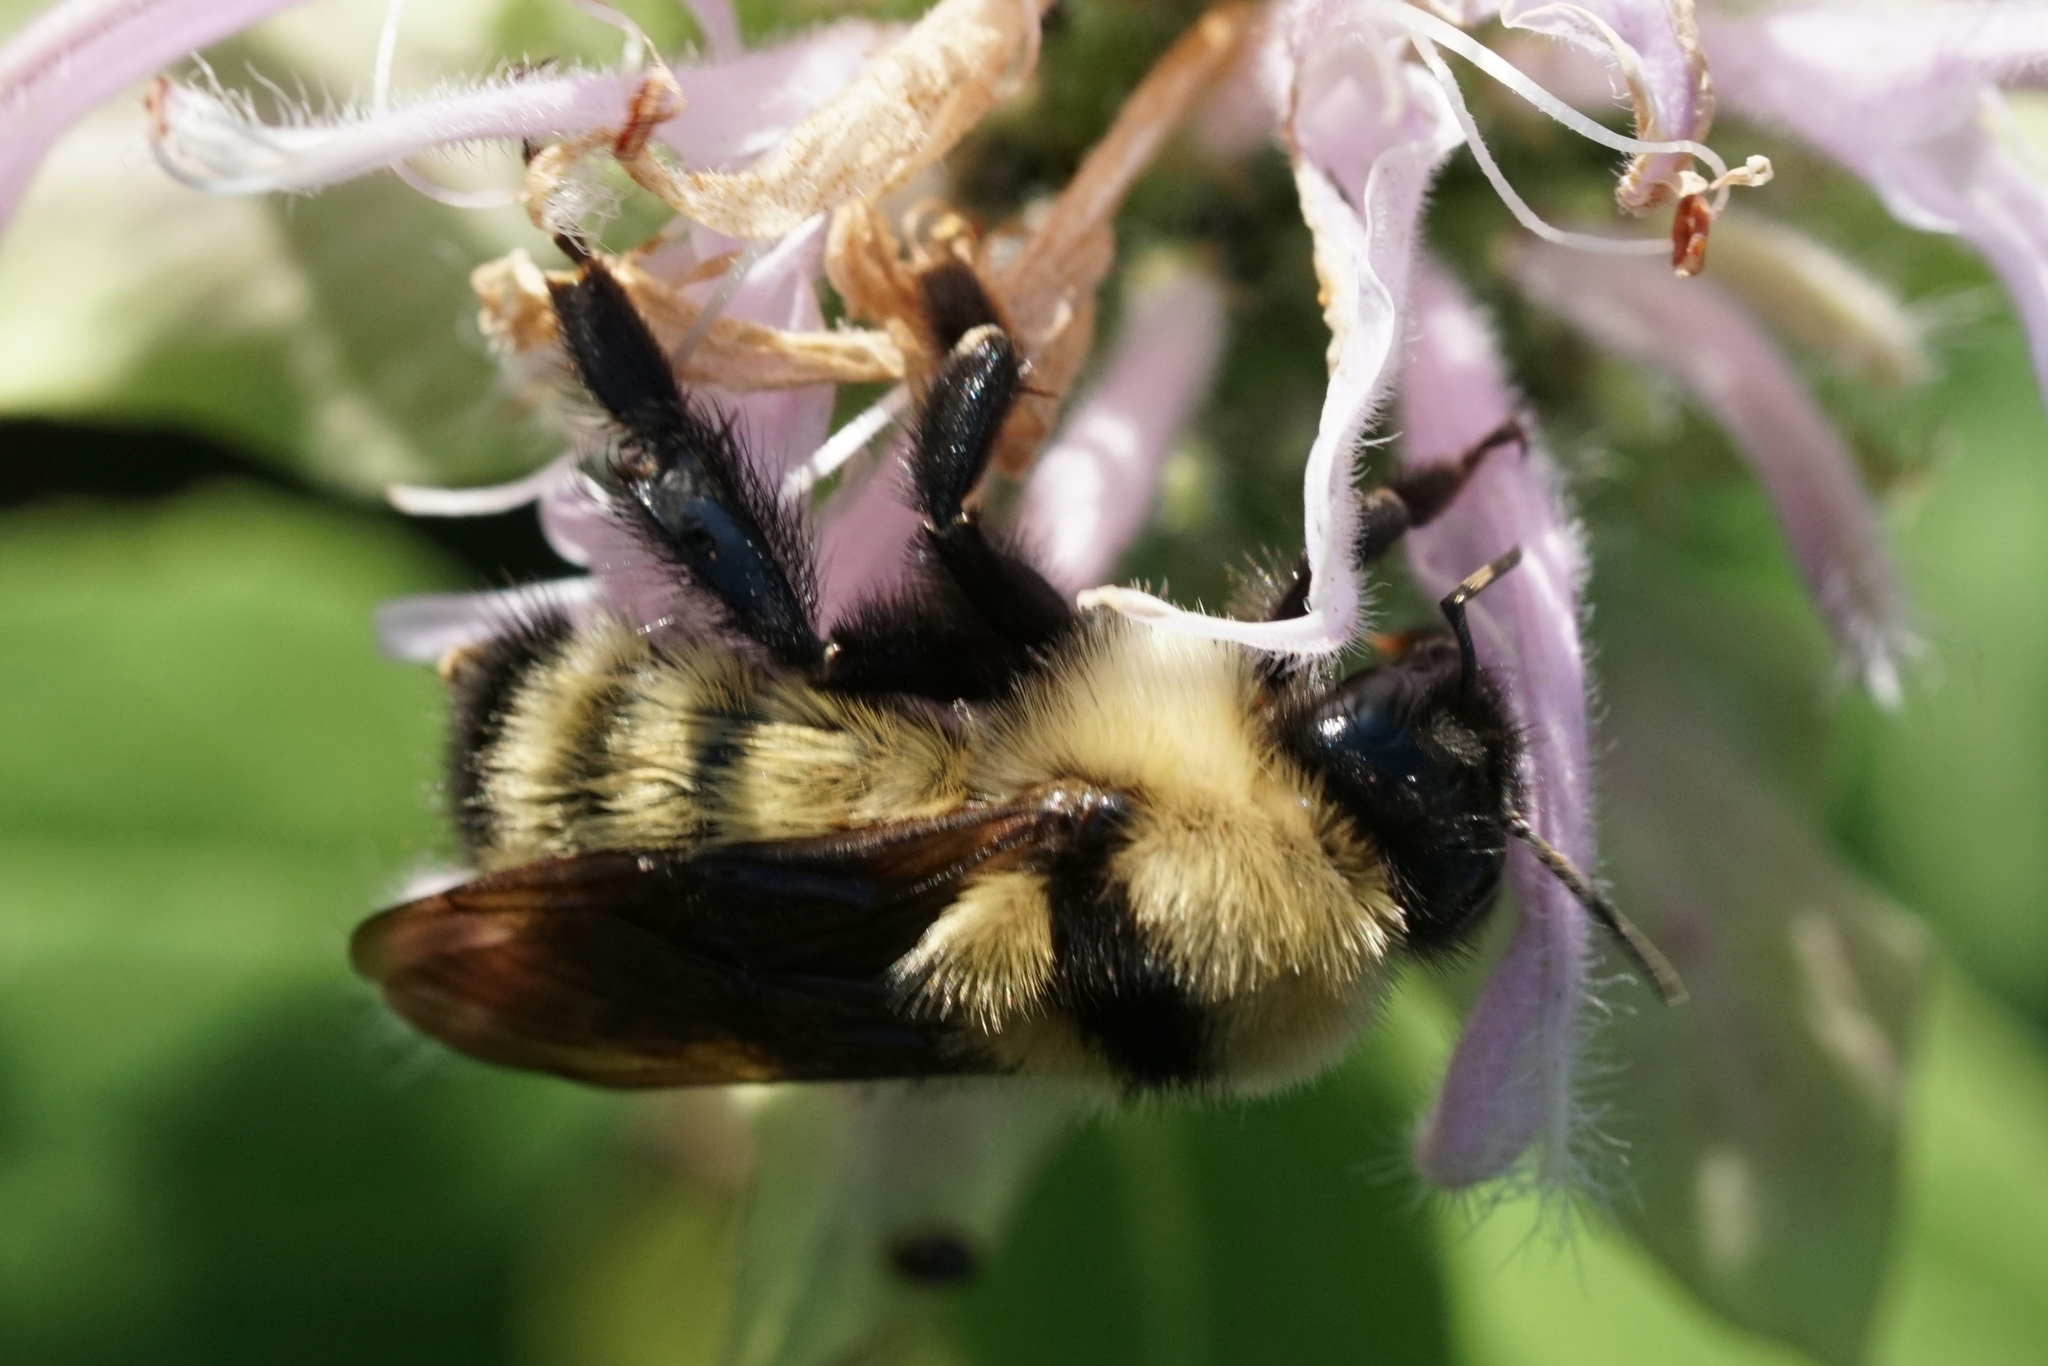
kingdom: Animalia
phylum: Arthropoda
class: Insecta
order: Hymenoptera
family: Apidae
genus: Bombus
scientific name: Bombus fervidus
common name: Yellow bumble bee
